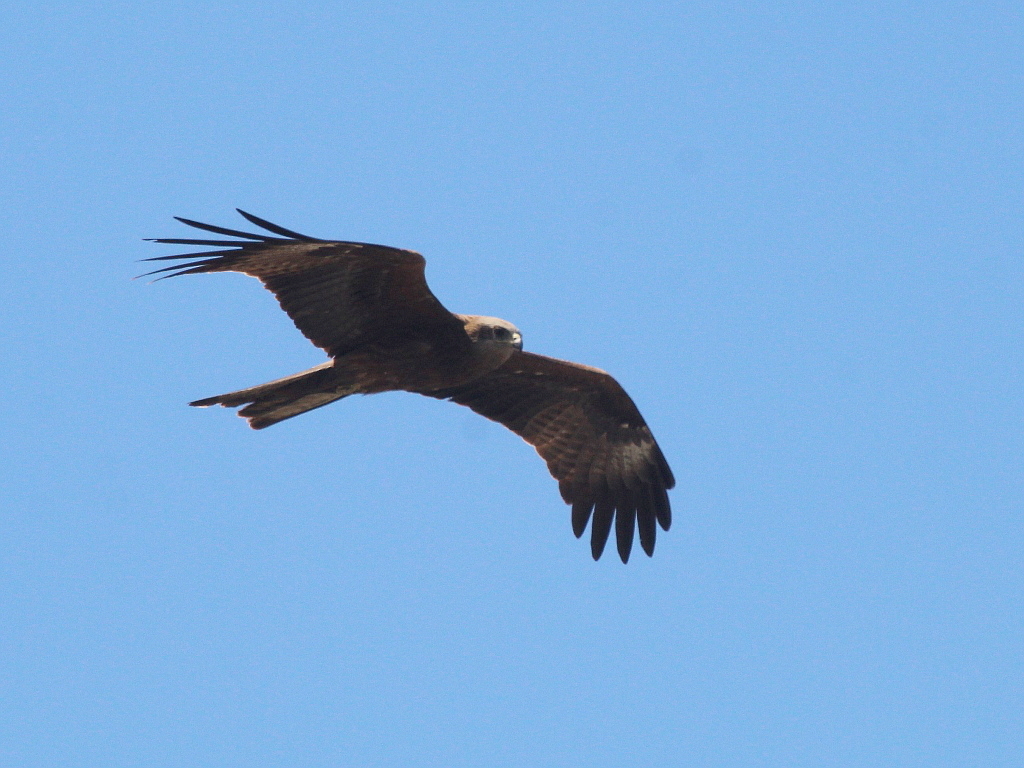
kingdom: Animalia
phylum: Chordata
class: Aves
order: Accipitriformes
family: Accipitridae
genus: Milvus
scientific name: Milvus migrans
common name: Black kite
